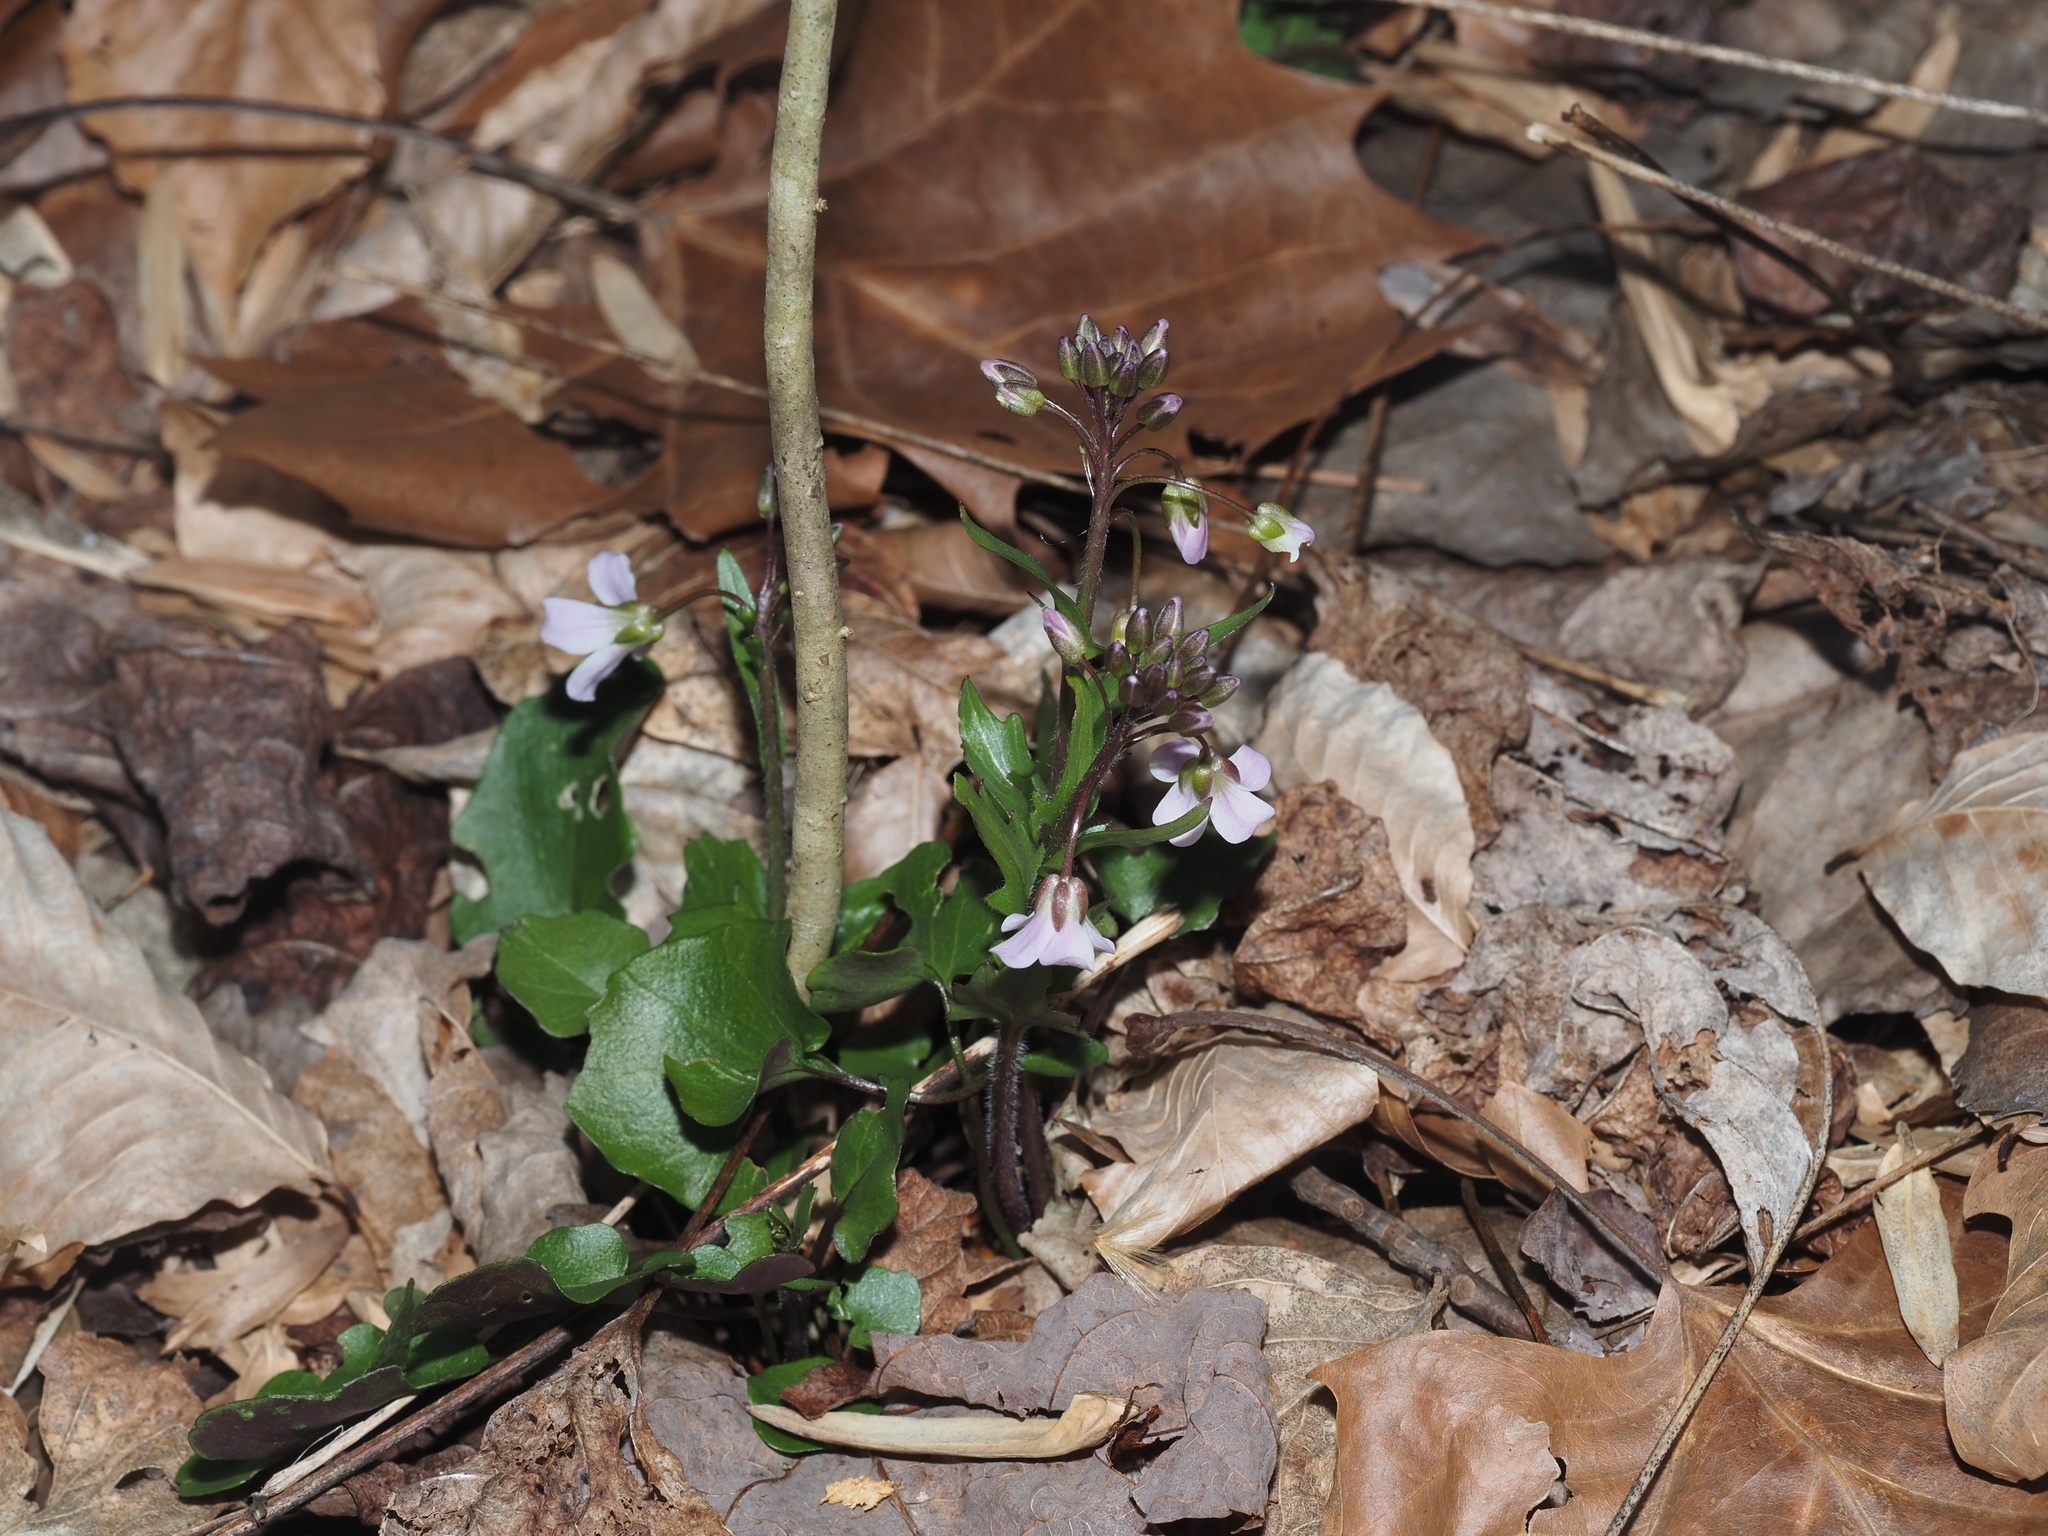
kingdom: Plantae
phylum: Tracheophyta
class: Magnoliopsida
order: Brassicales
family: Brassicaceae
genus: Cardamine
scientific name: Cardamine douglassii
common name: Purple cress
